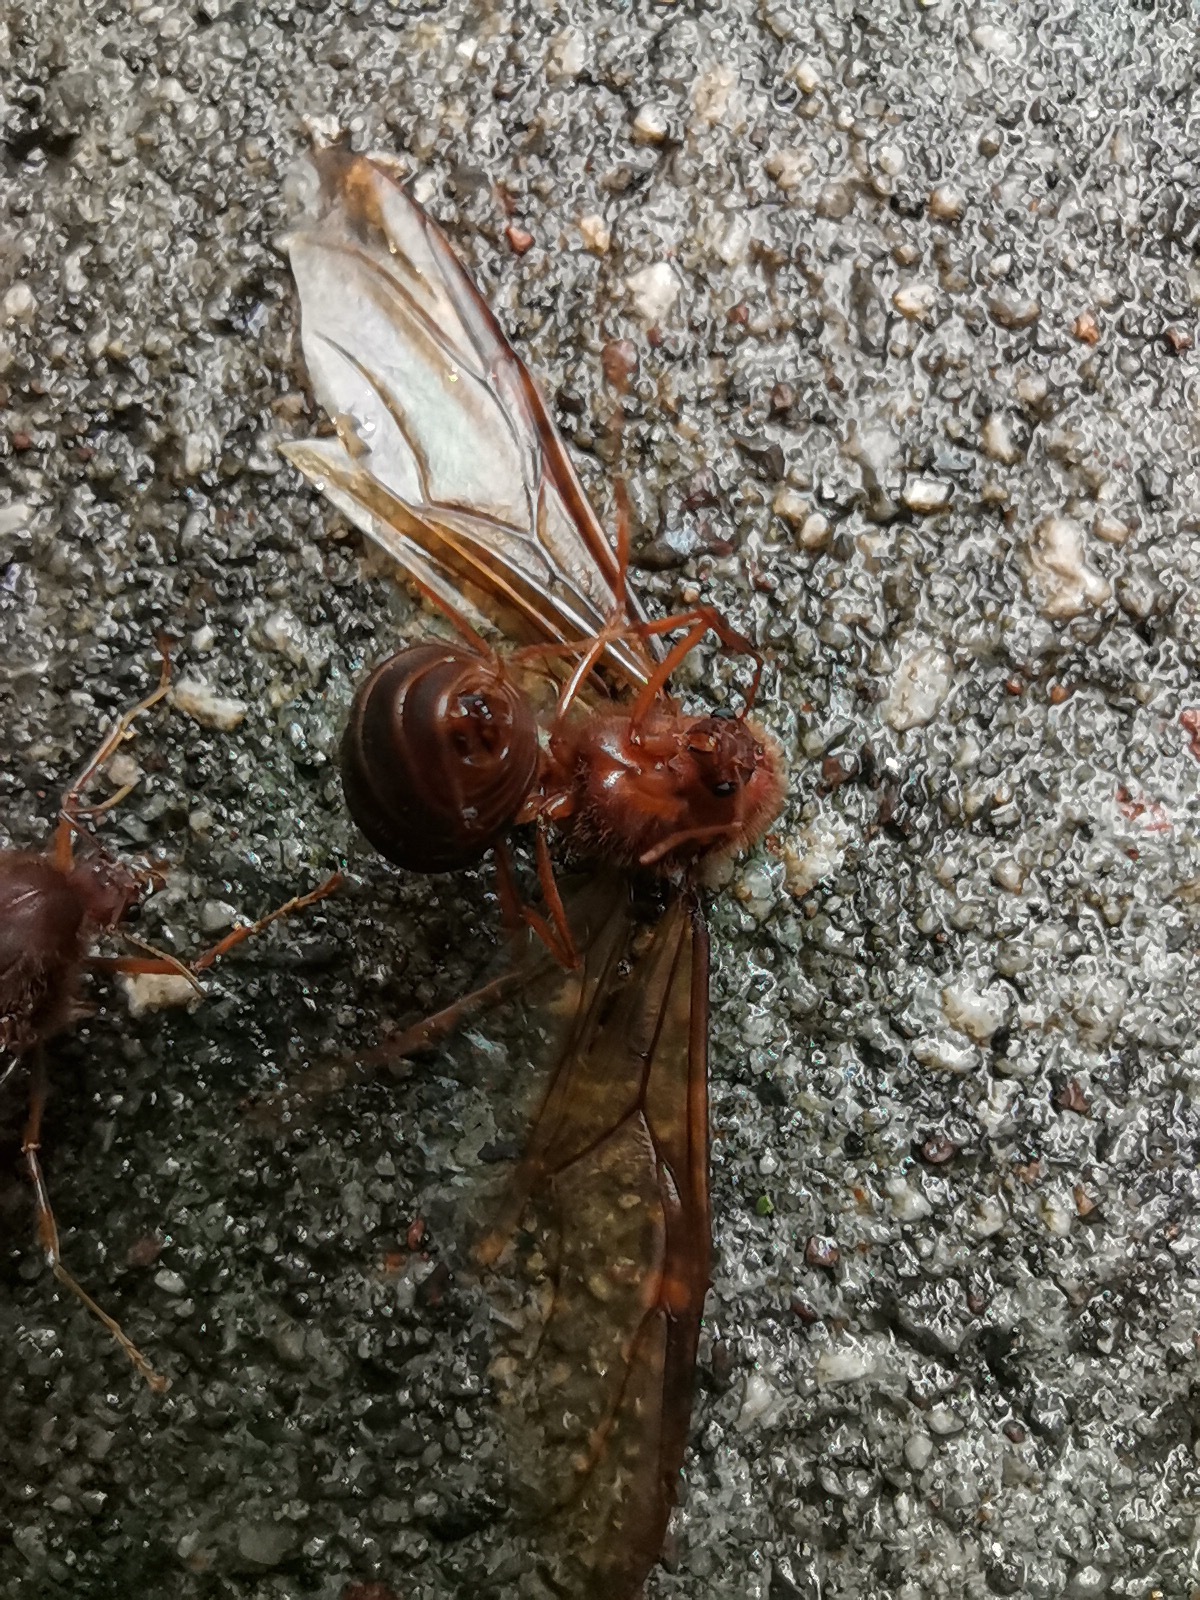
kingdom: Animalia
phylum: Arthropoda
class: Insecta
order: Hymenoptera
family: Formicidae
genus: Atta
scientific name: Atta mexicana
